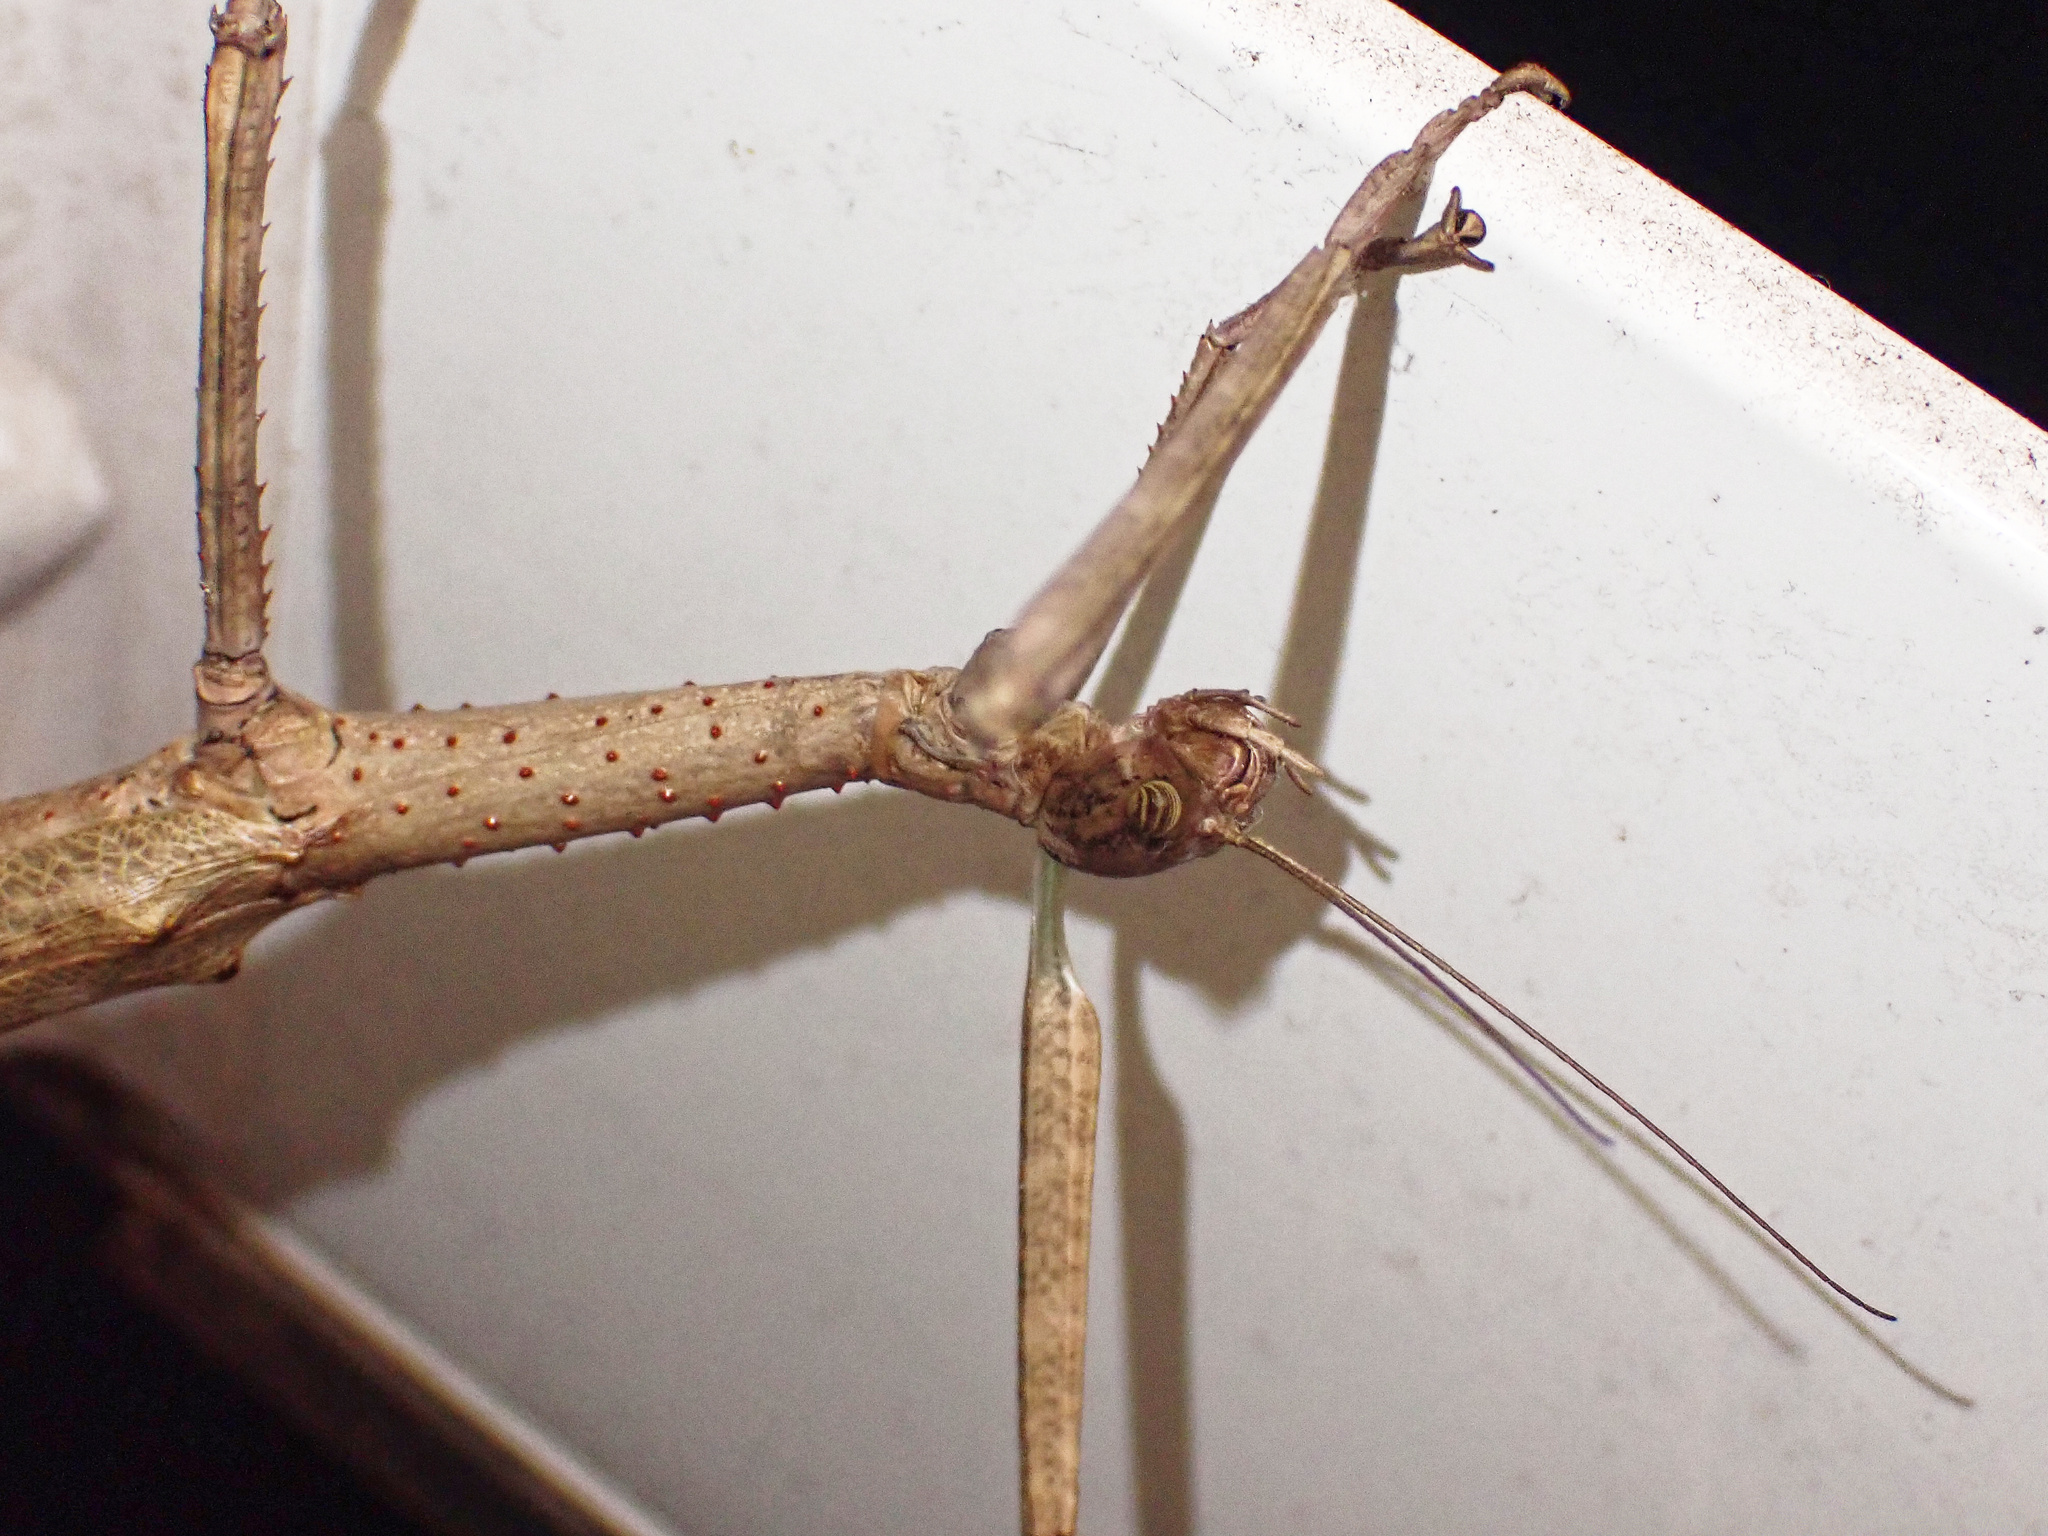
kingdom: Animalia
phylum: Arthropoda
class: Insecta
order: Phasmida
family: Phasmatidae
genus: Anchiale
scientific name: Anchiale briareus
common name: Strong stick insect
